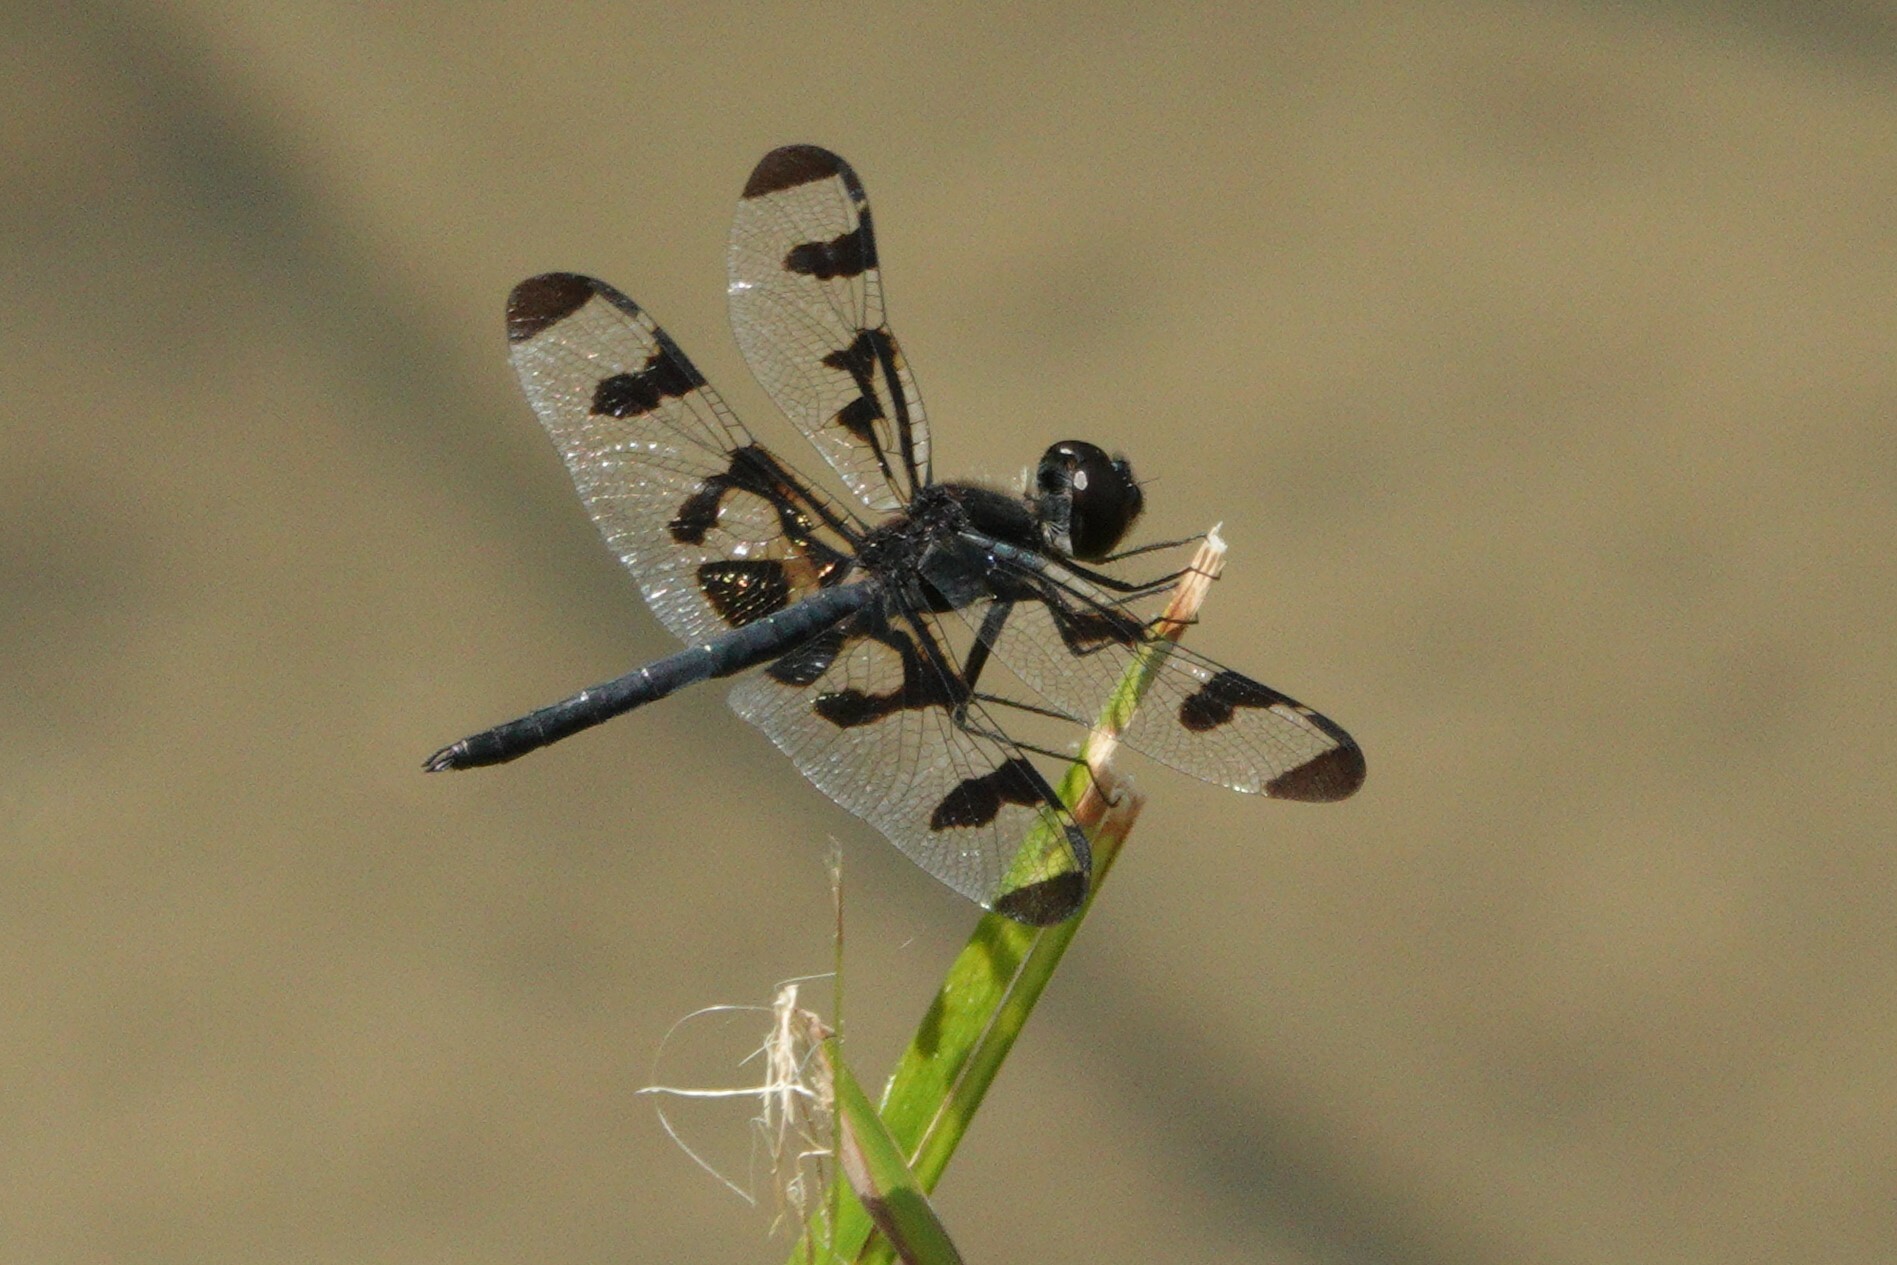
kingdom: Animalia
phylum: Arthropoda
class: Insecta
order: Odonata
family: Libellulidae
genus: Celithemis
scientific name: Celithemis fasciata
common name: Banded pennant
